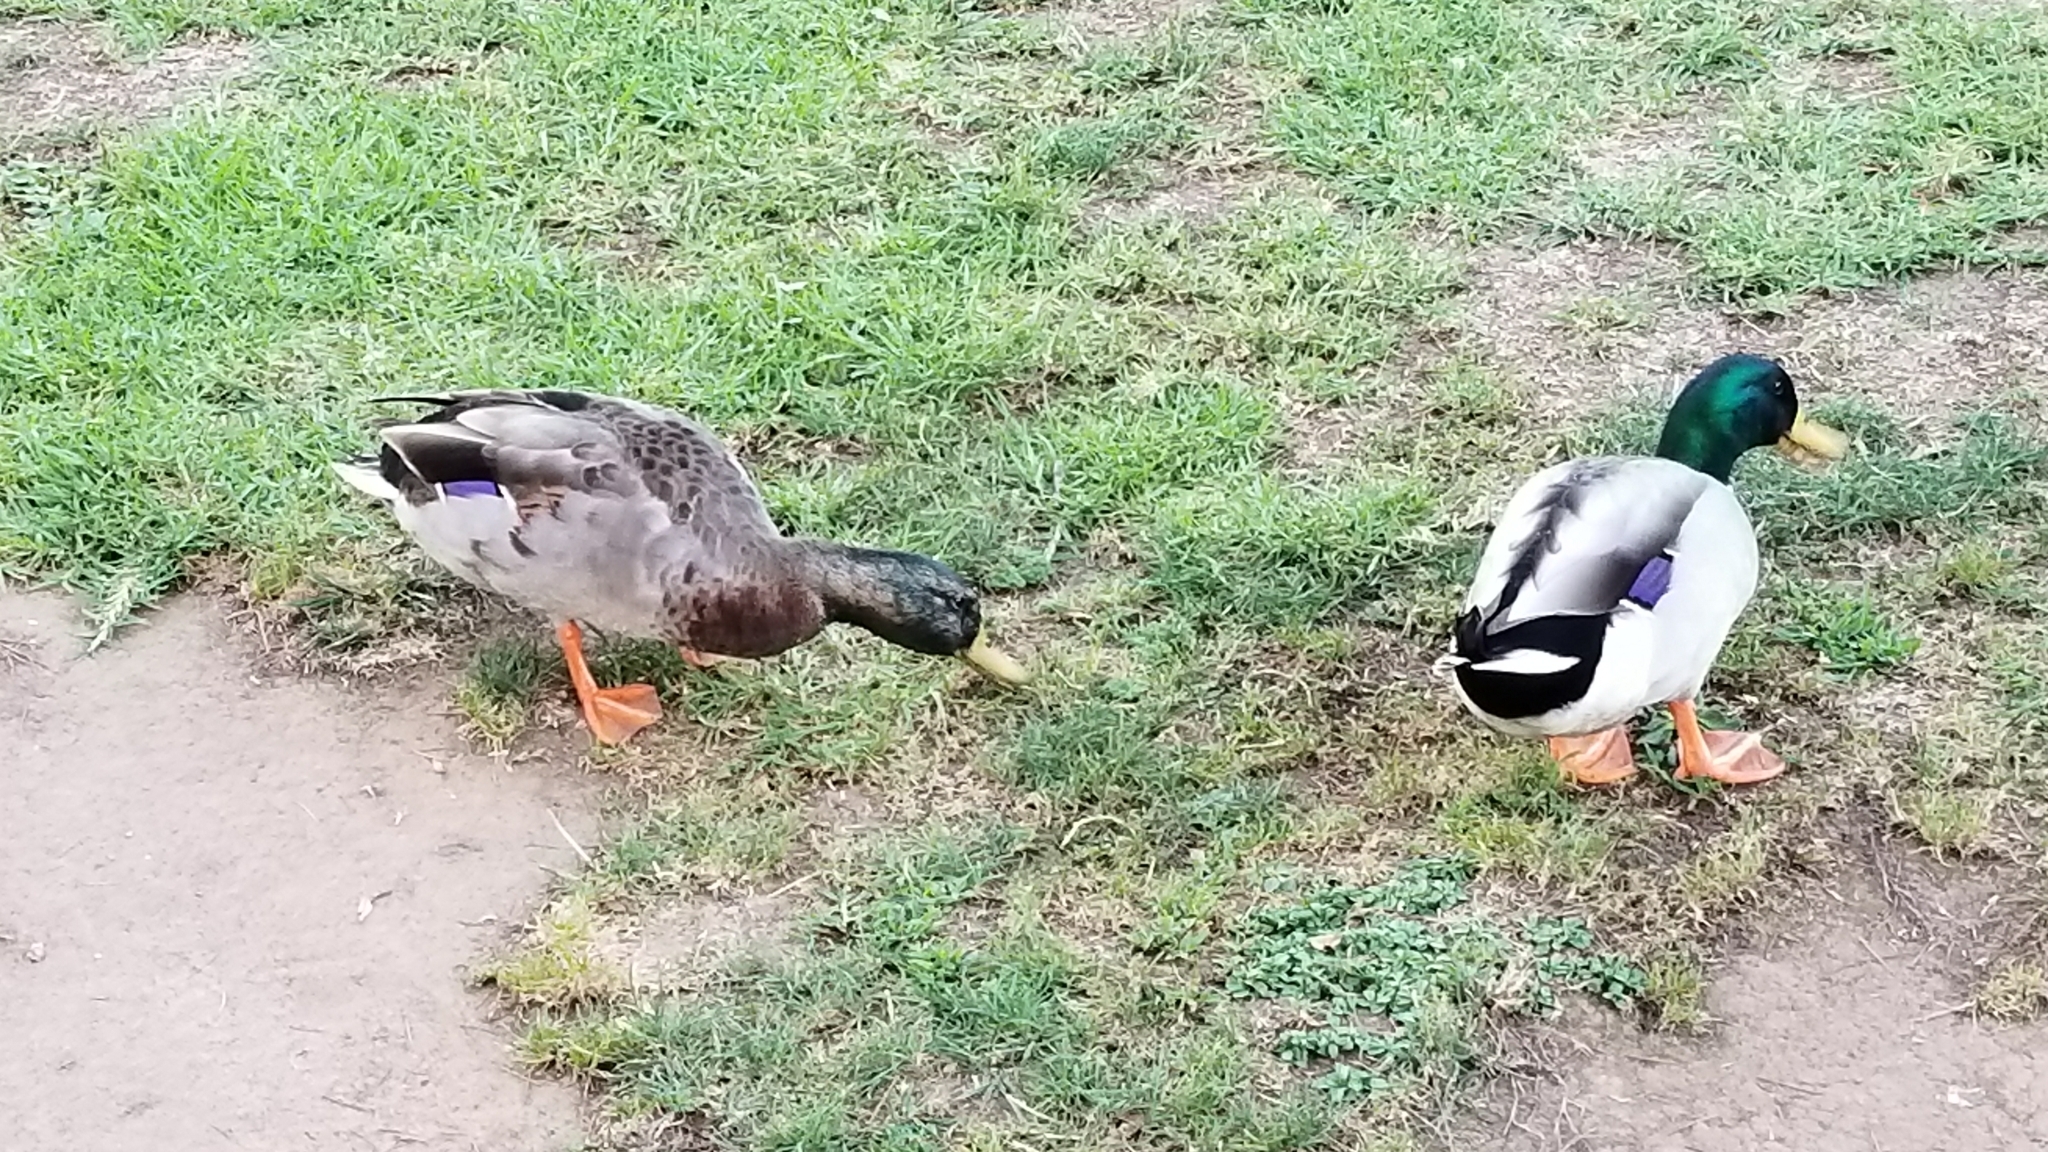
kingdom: Animalia
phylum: Chordata
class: Aves
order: Anseriformes
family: Anatidae
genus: Anas
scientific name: Anas platyrhynchos
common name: Mallard
